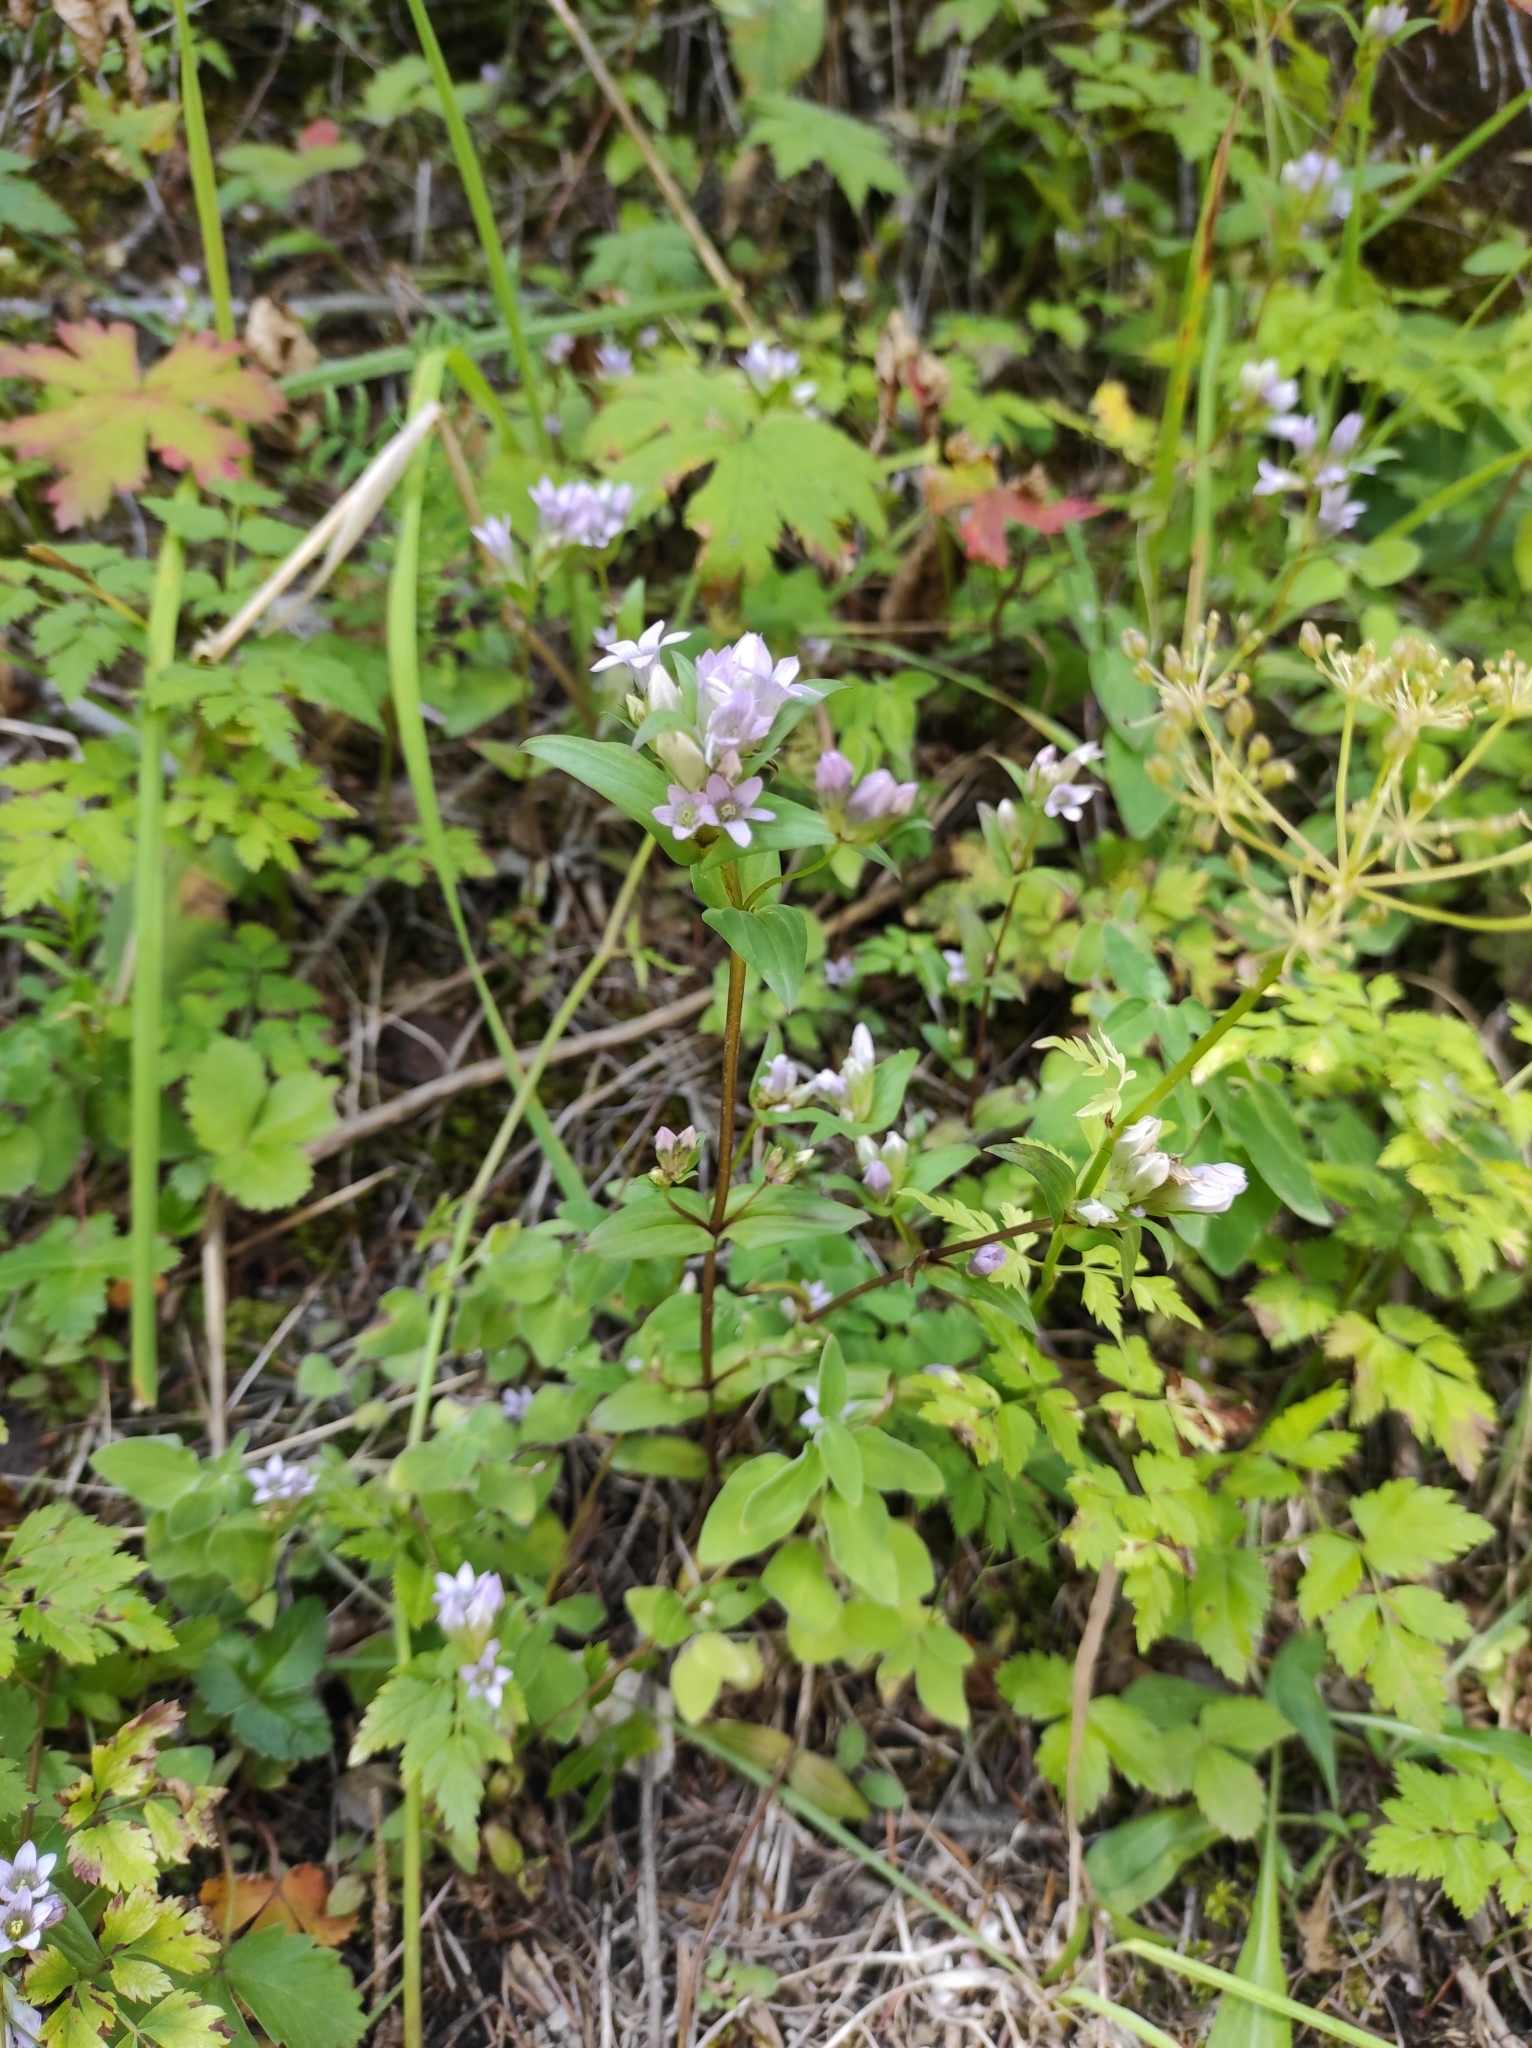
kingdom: Plantae
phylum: Tracheophyta
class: Magnoliopsida
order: Gentianales
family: Gentianaceae
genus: Gentianella
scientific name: Gentianella turkestanorum
